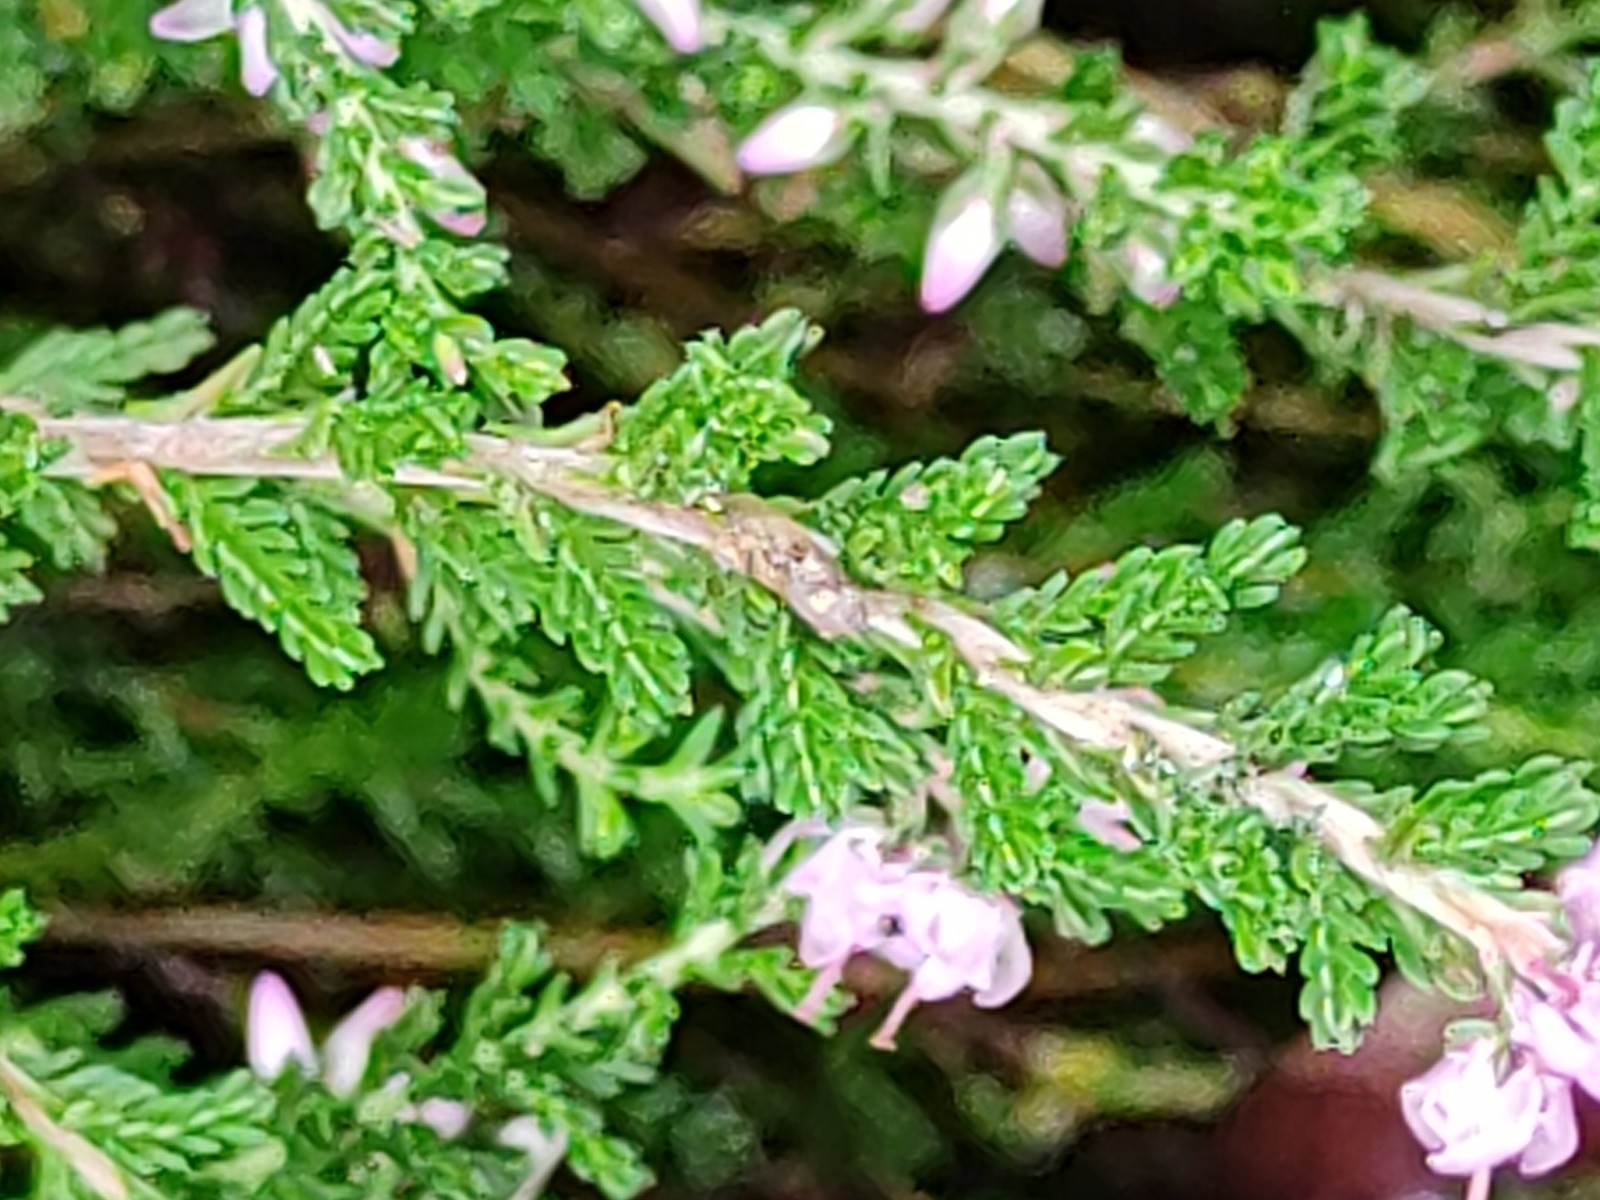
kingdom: Plantae
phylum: Tracheophyta
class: Magnoliopsida
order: Ericales
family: Ericaceae
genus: Calluna
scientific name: Calluna vulgaris
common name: Heather
